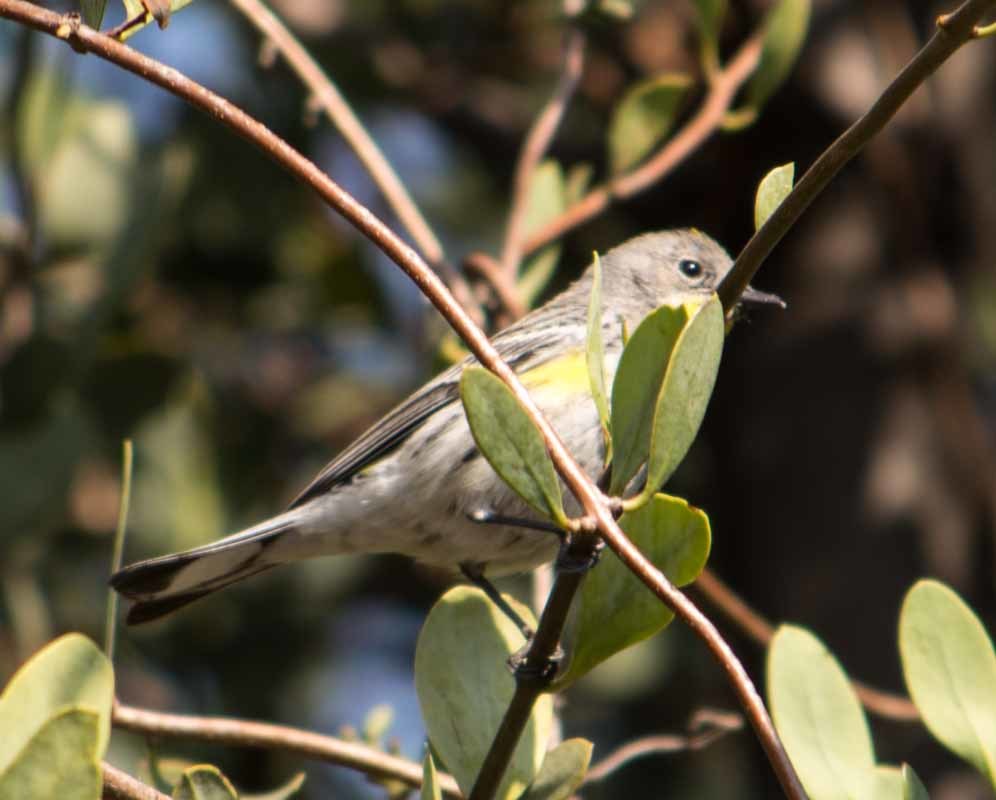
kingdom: Animalia
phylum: Chordata
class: Aves
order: Passeriformes
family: Parulidae
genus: Setophaga
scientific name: Setophaga coronata
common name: Myrtle warbler
